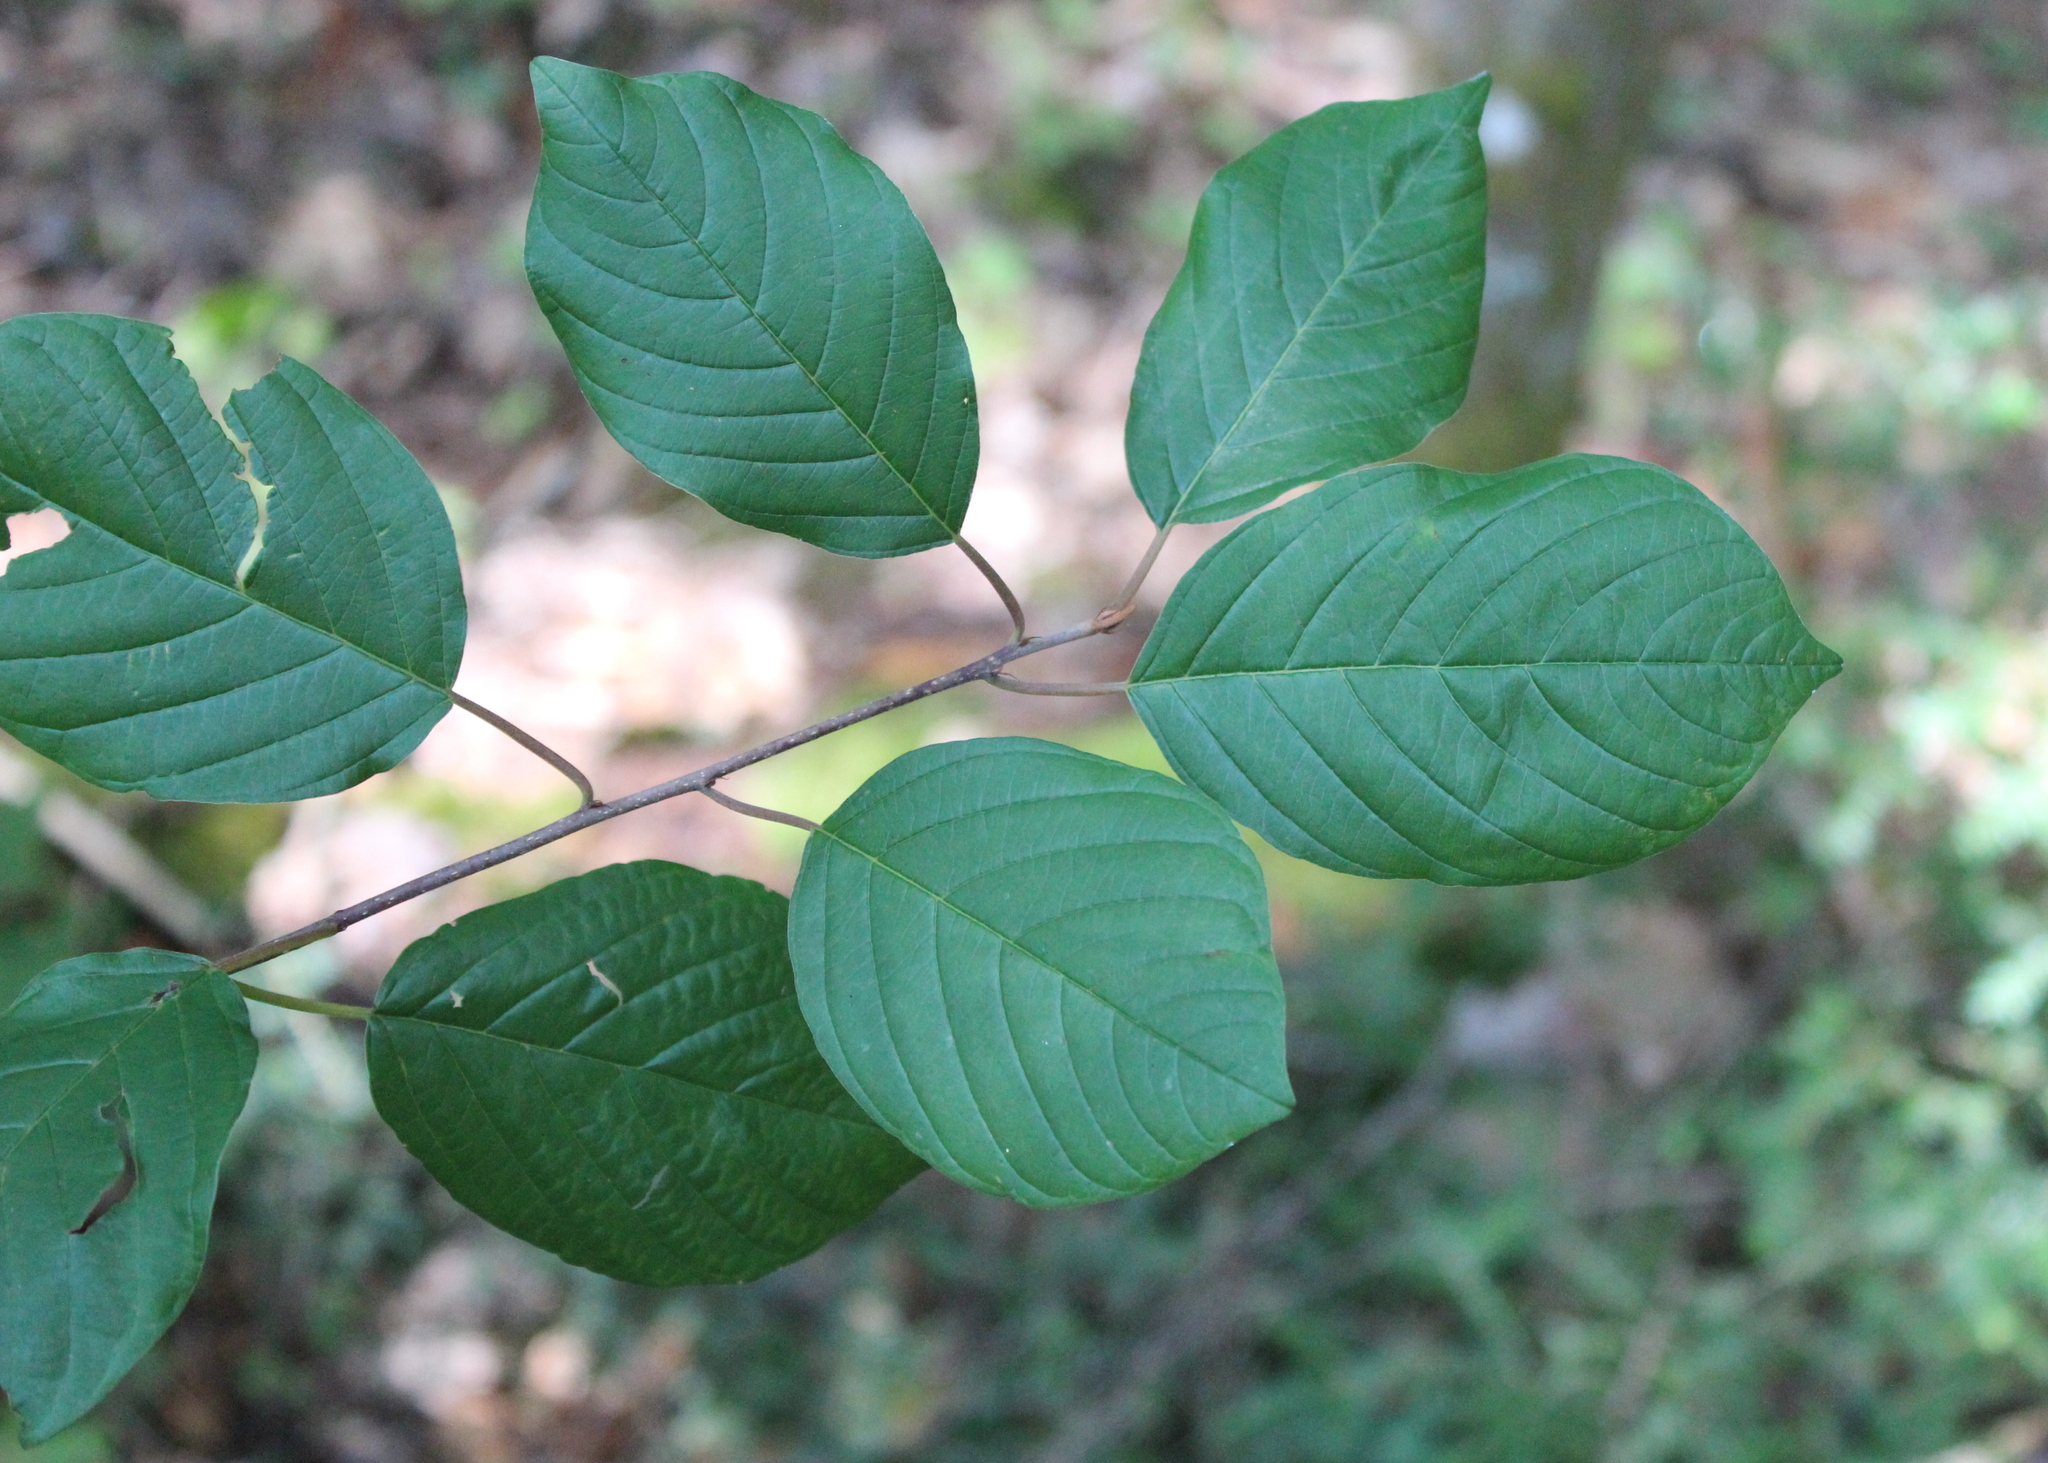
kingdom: Plantae
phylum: Tracheophyta
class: Magnoliopsida
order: Rosales
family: Rhamnaceae
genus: Frangula
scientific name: Frangula alnus
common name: Alder buckthorn
